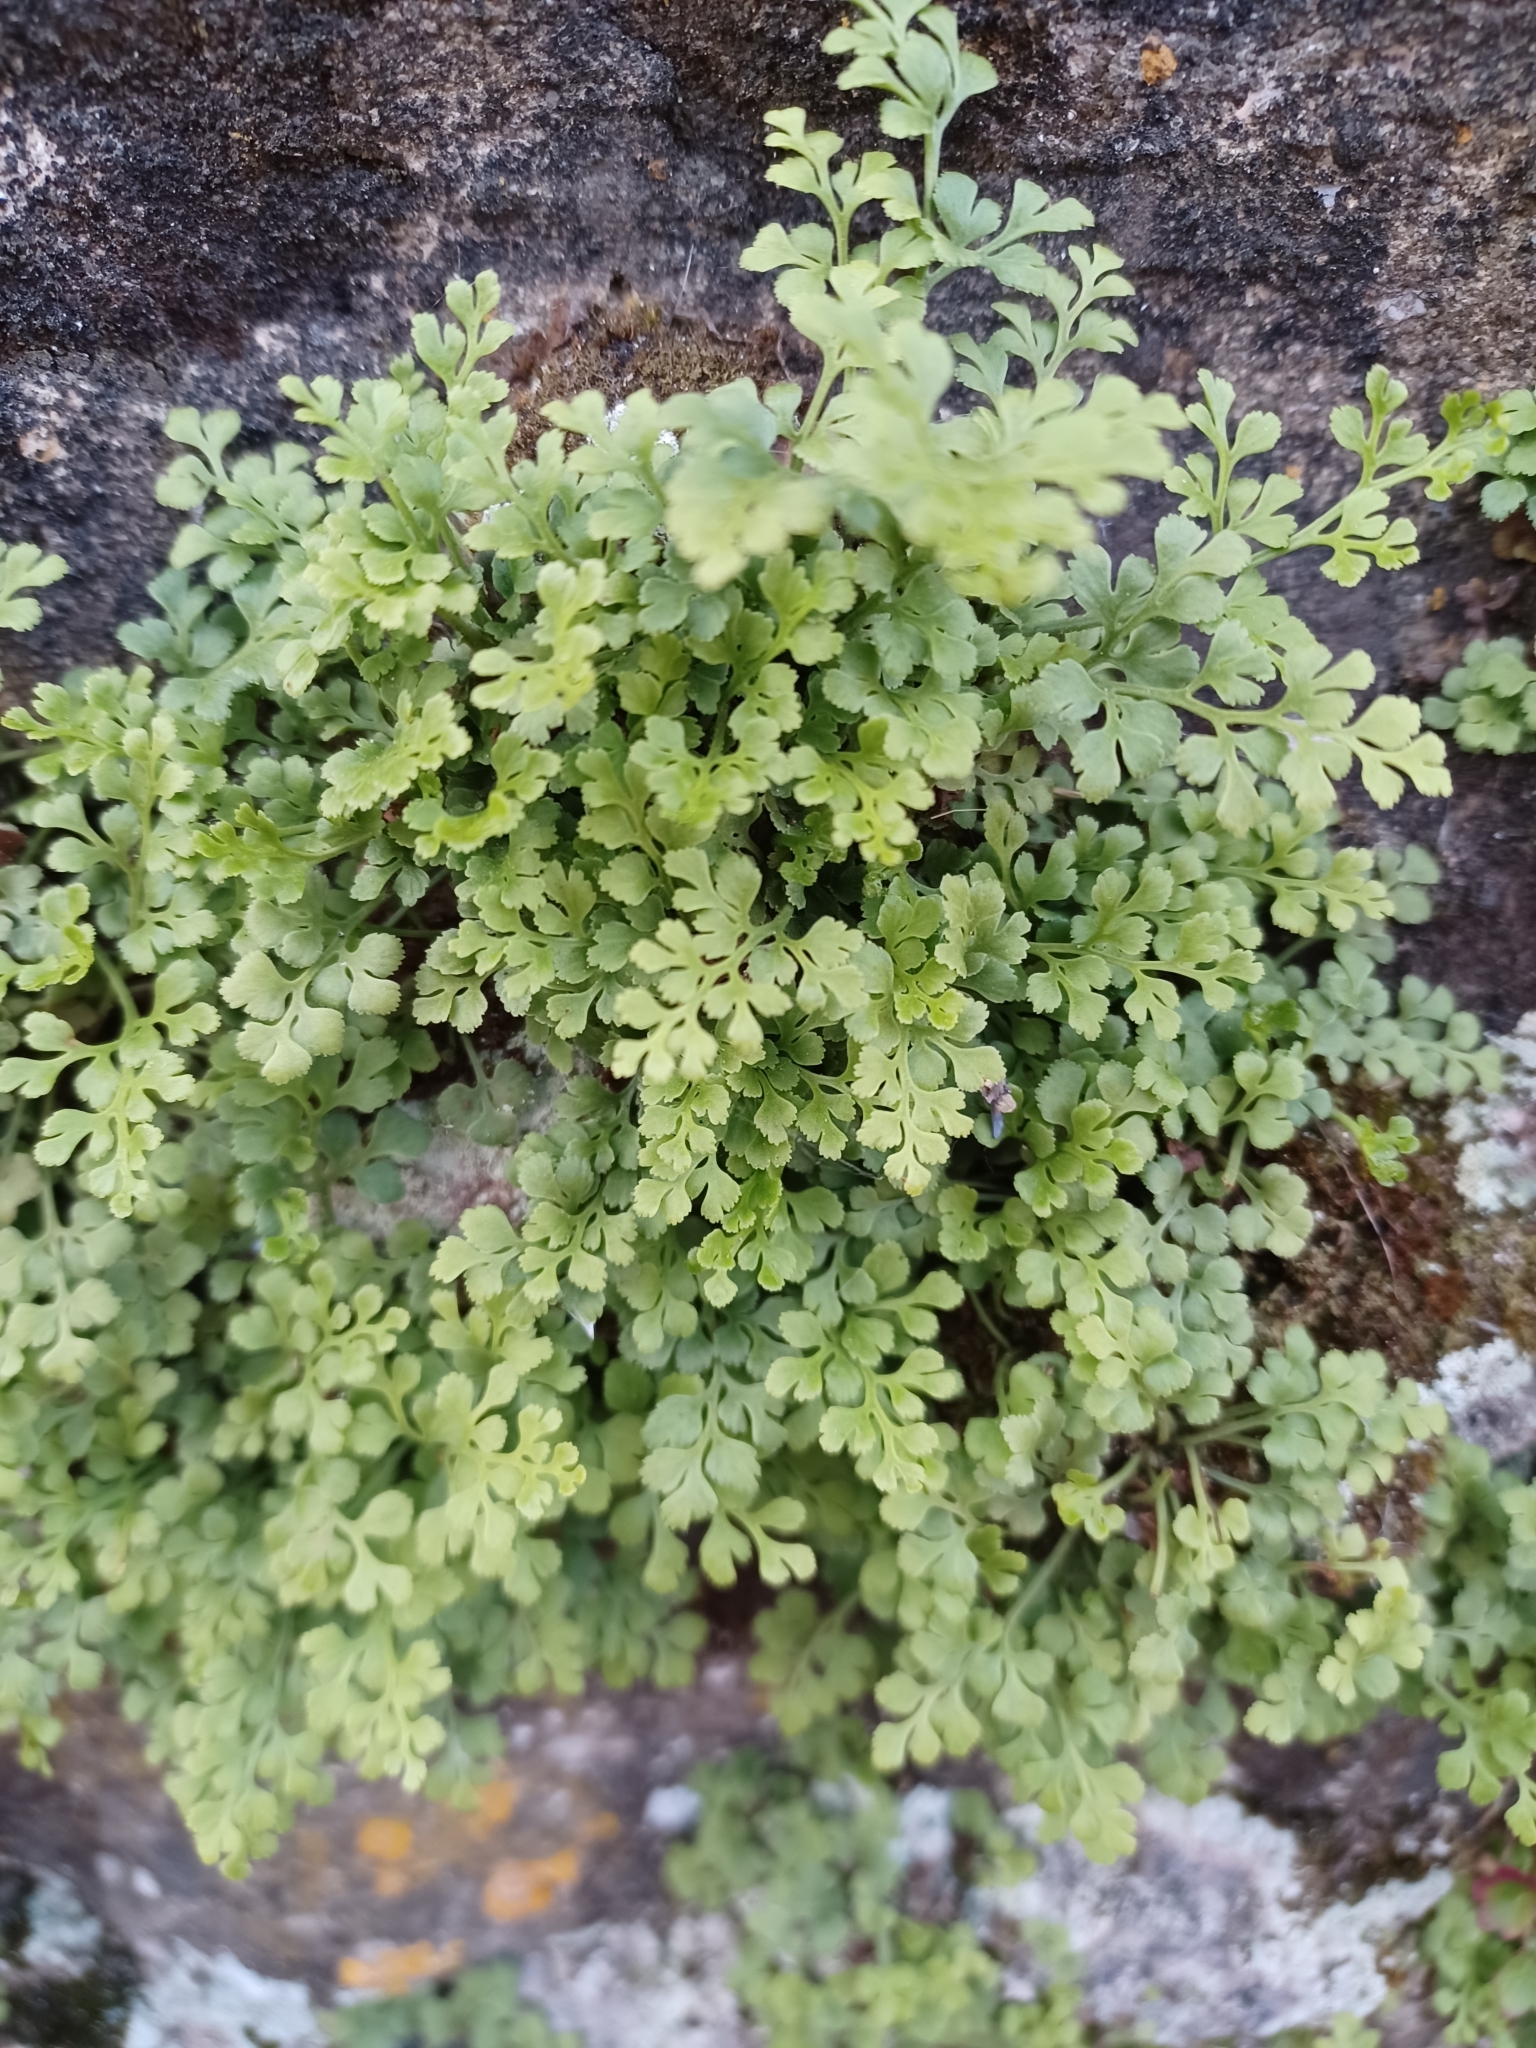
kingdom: Plantae
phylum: Tracheophyta
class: Polypodiopsida
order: Polypodiales
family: Aspleniaceae
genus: Asplenium
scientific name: Asplenium ruta-muraria
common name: Wall-rue
